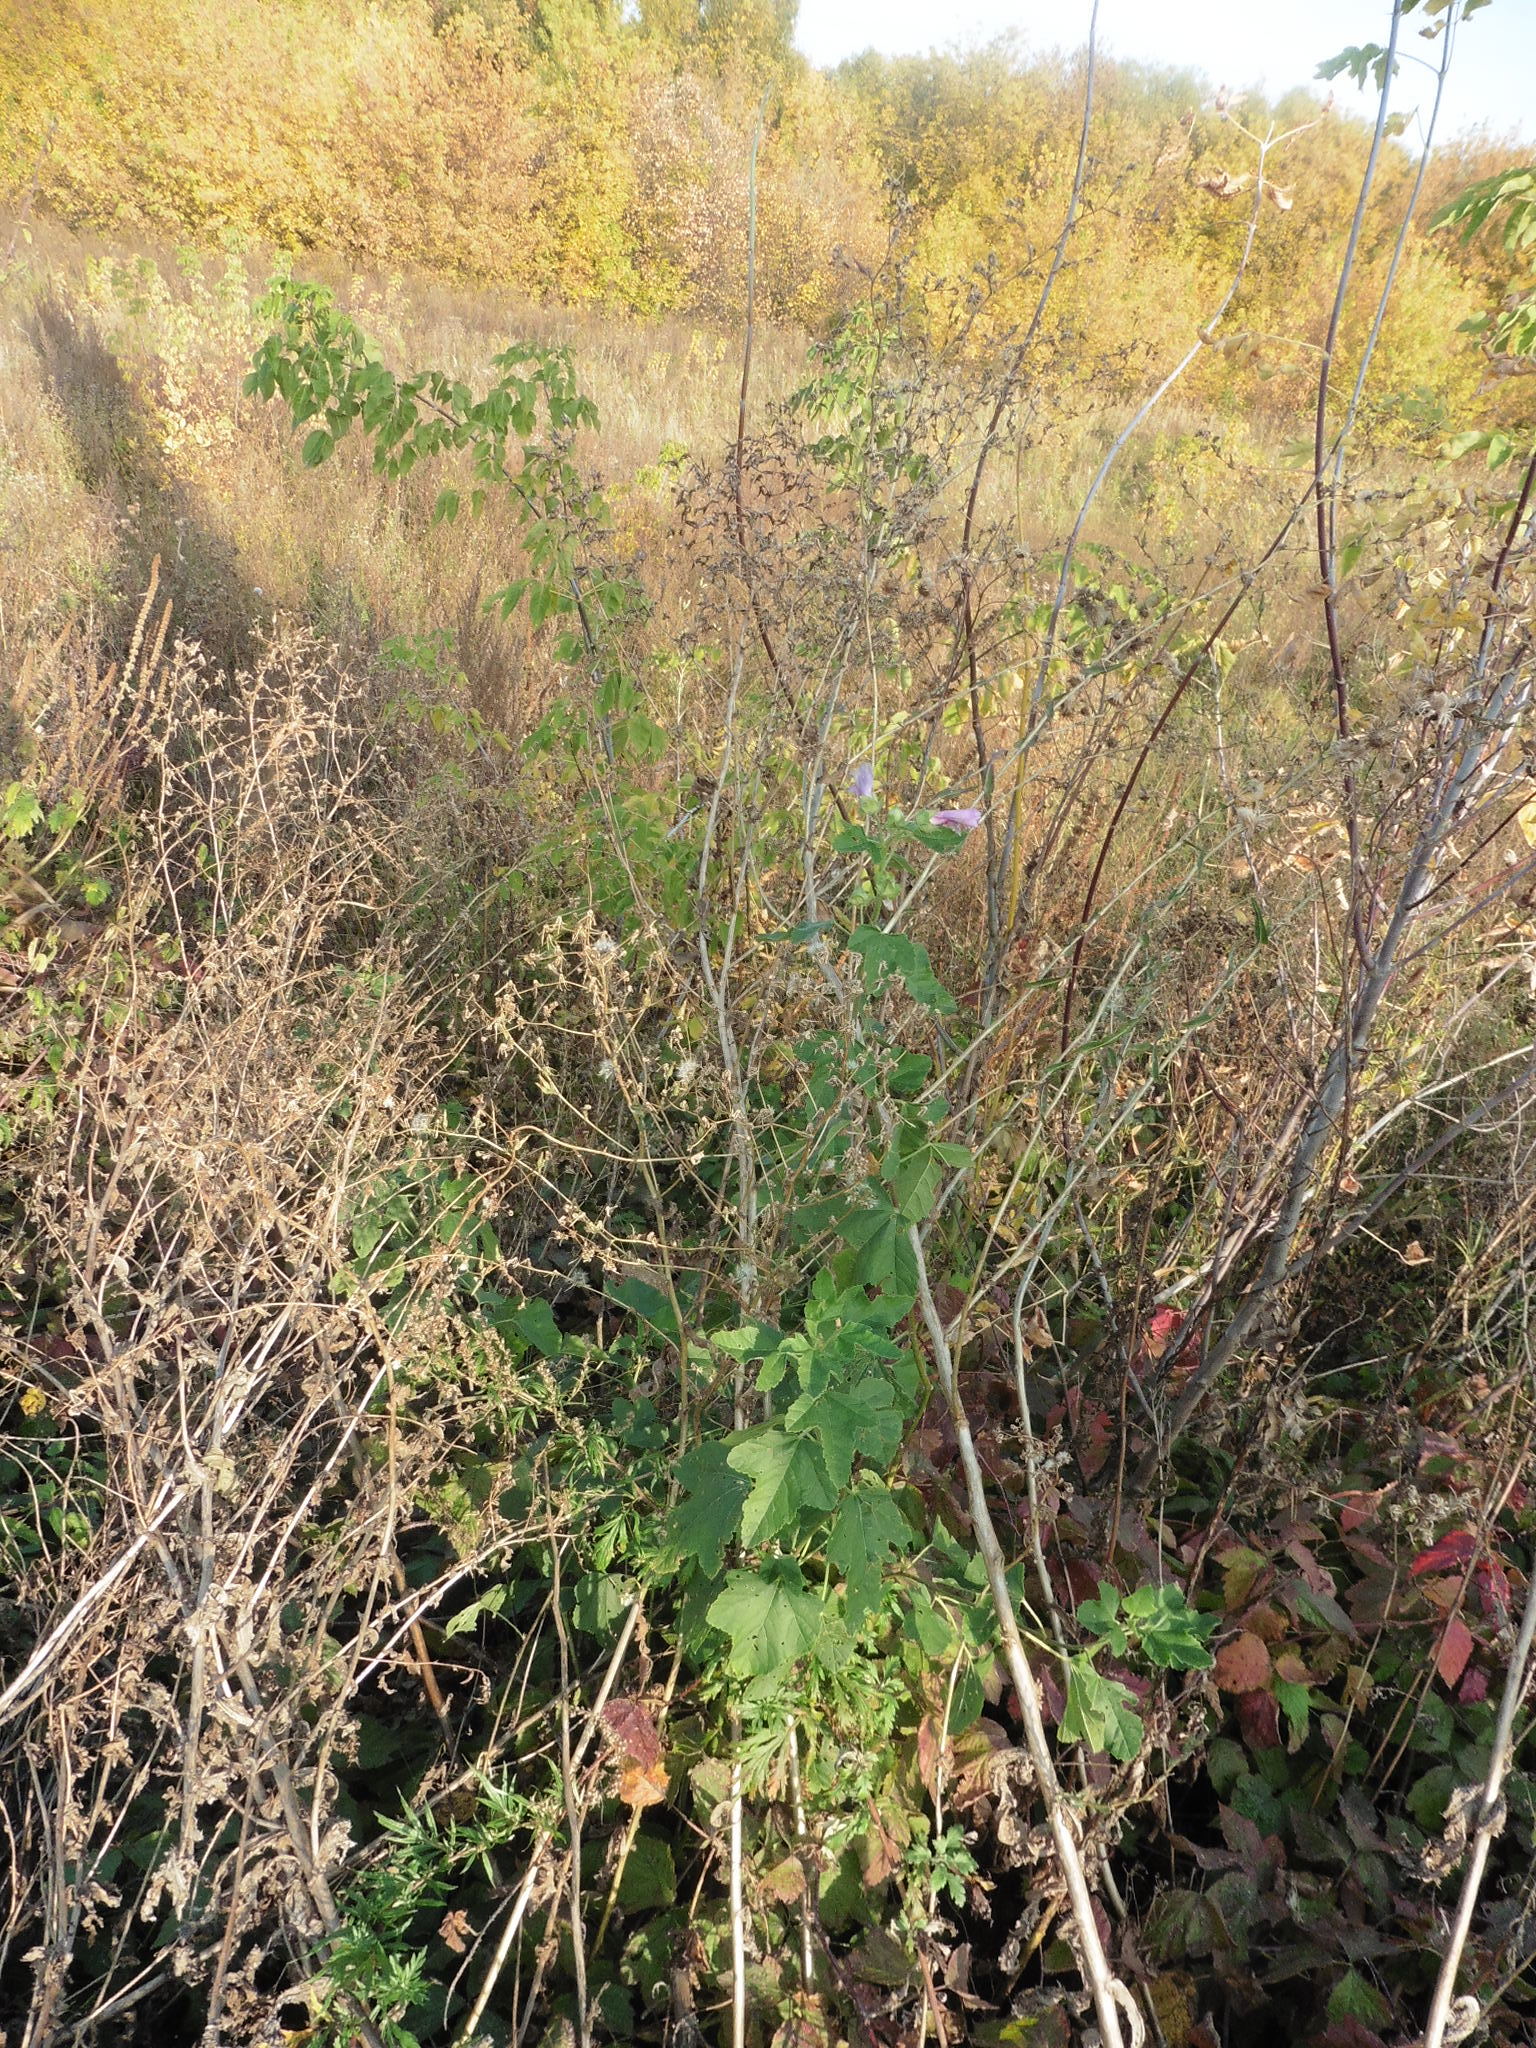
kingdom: Plantae
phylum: Tracheophyta
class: Magnoliopsida
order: Malvales
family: Malvaceae
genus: Malva
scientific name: Malva thuringiaca
